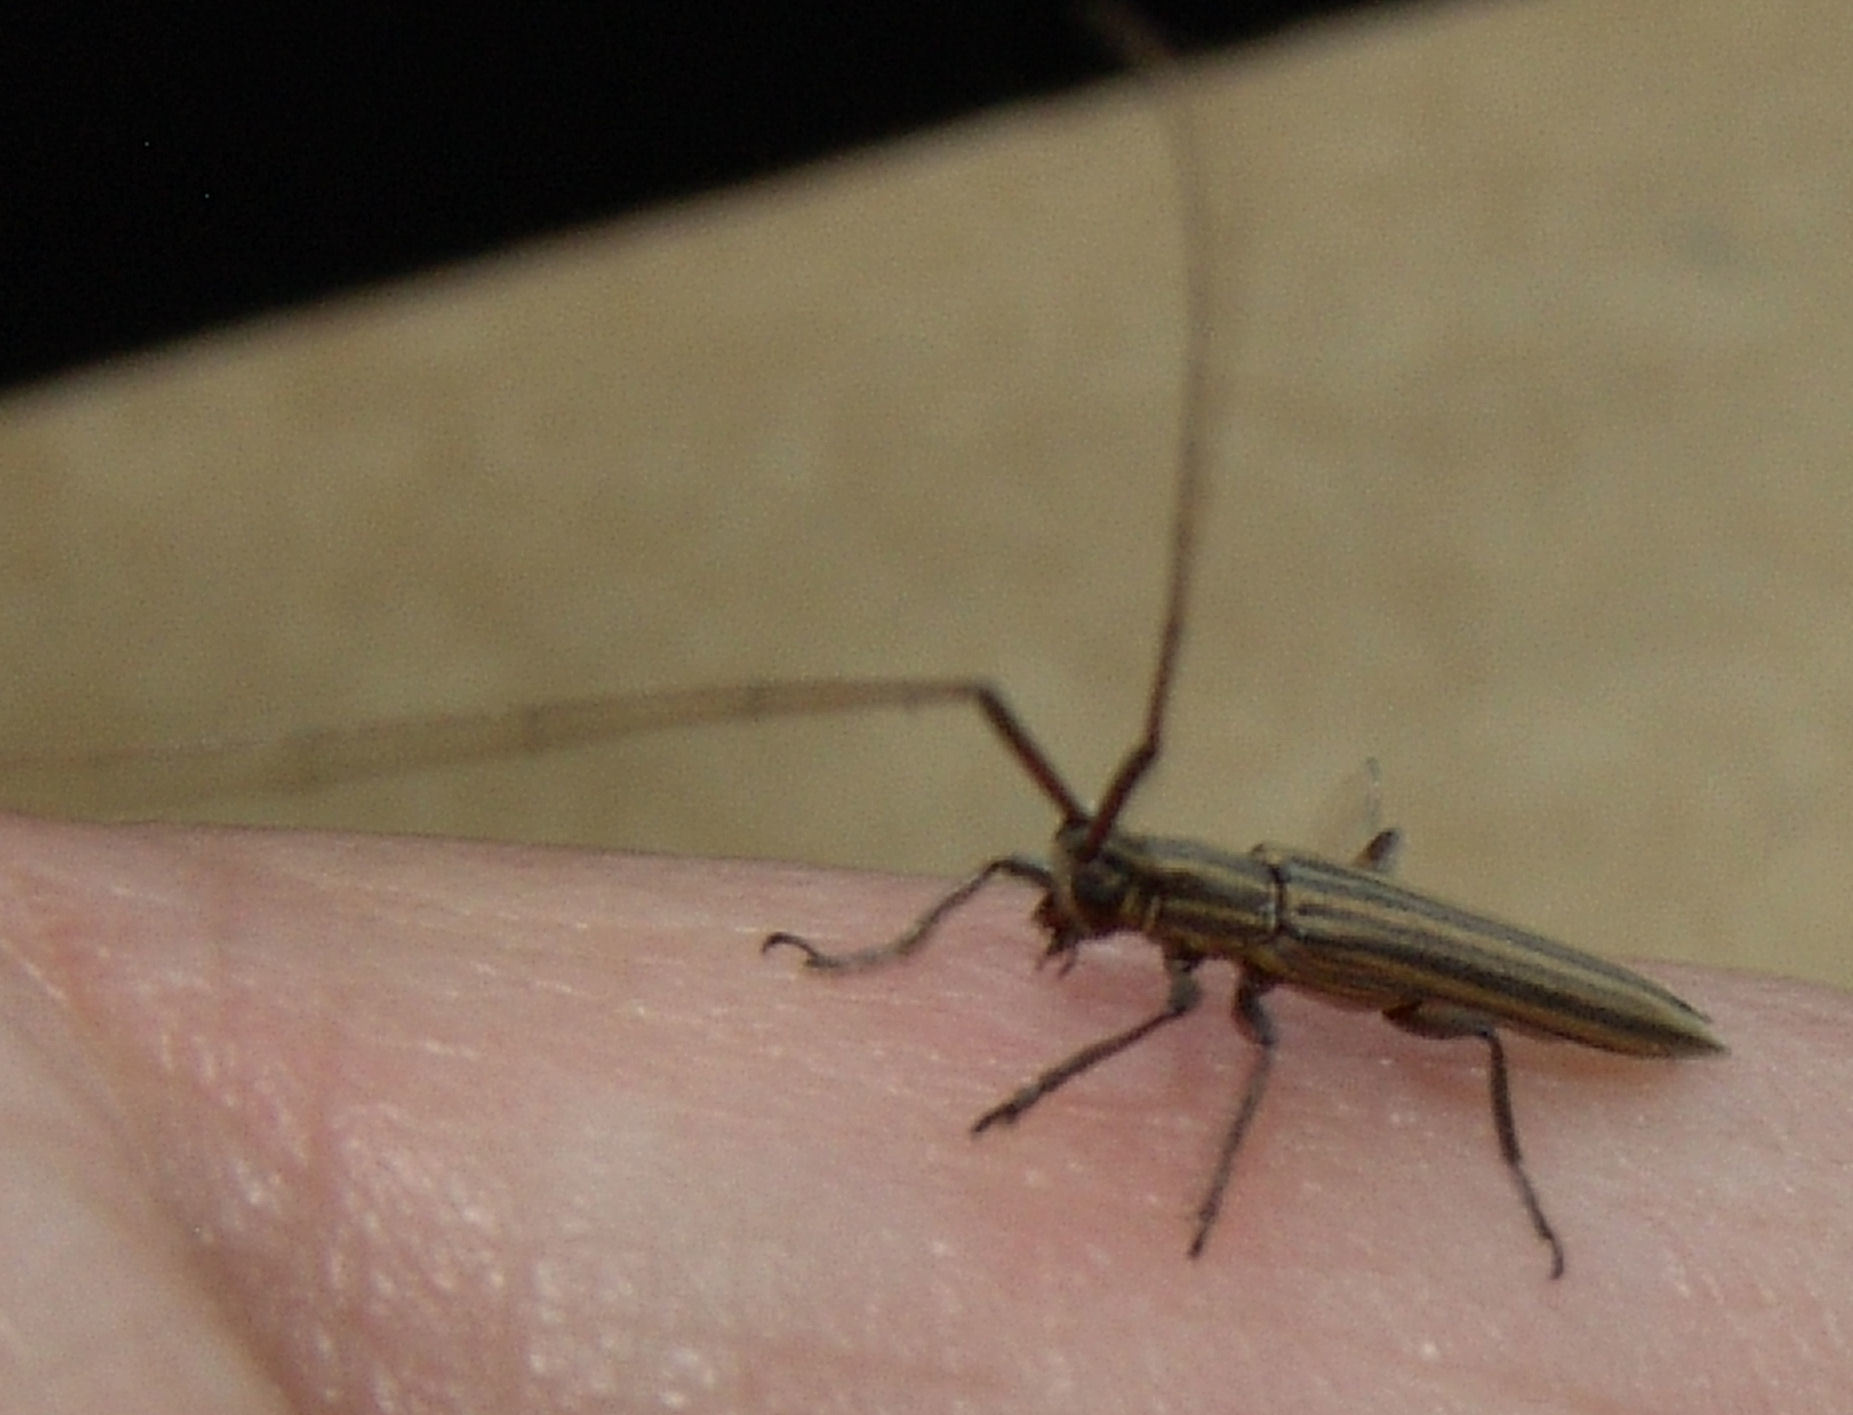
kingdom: Animalia
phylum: Arthropoda
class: Insecta
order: Coleoptera
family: Cerambycidae
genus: Hippopsis
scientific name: Hippopsis
